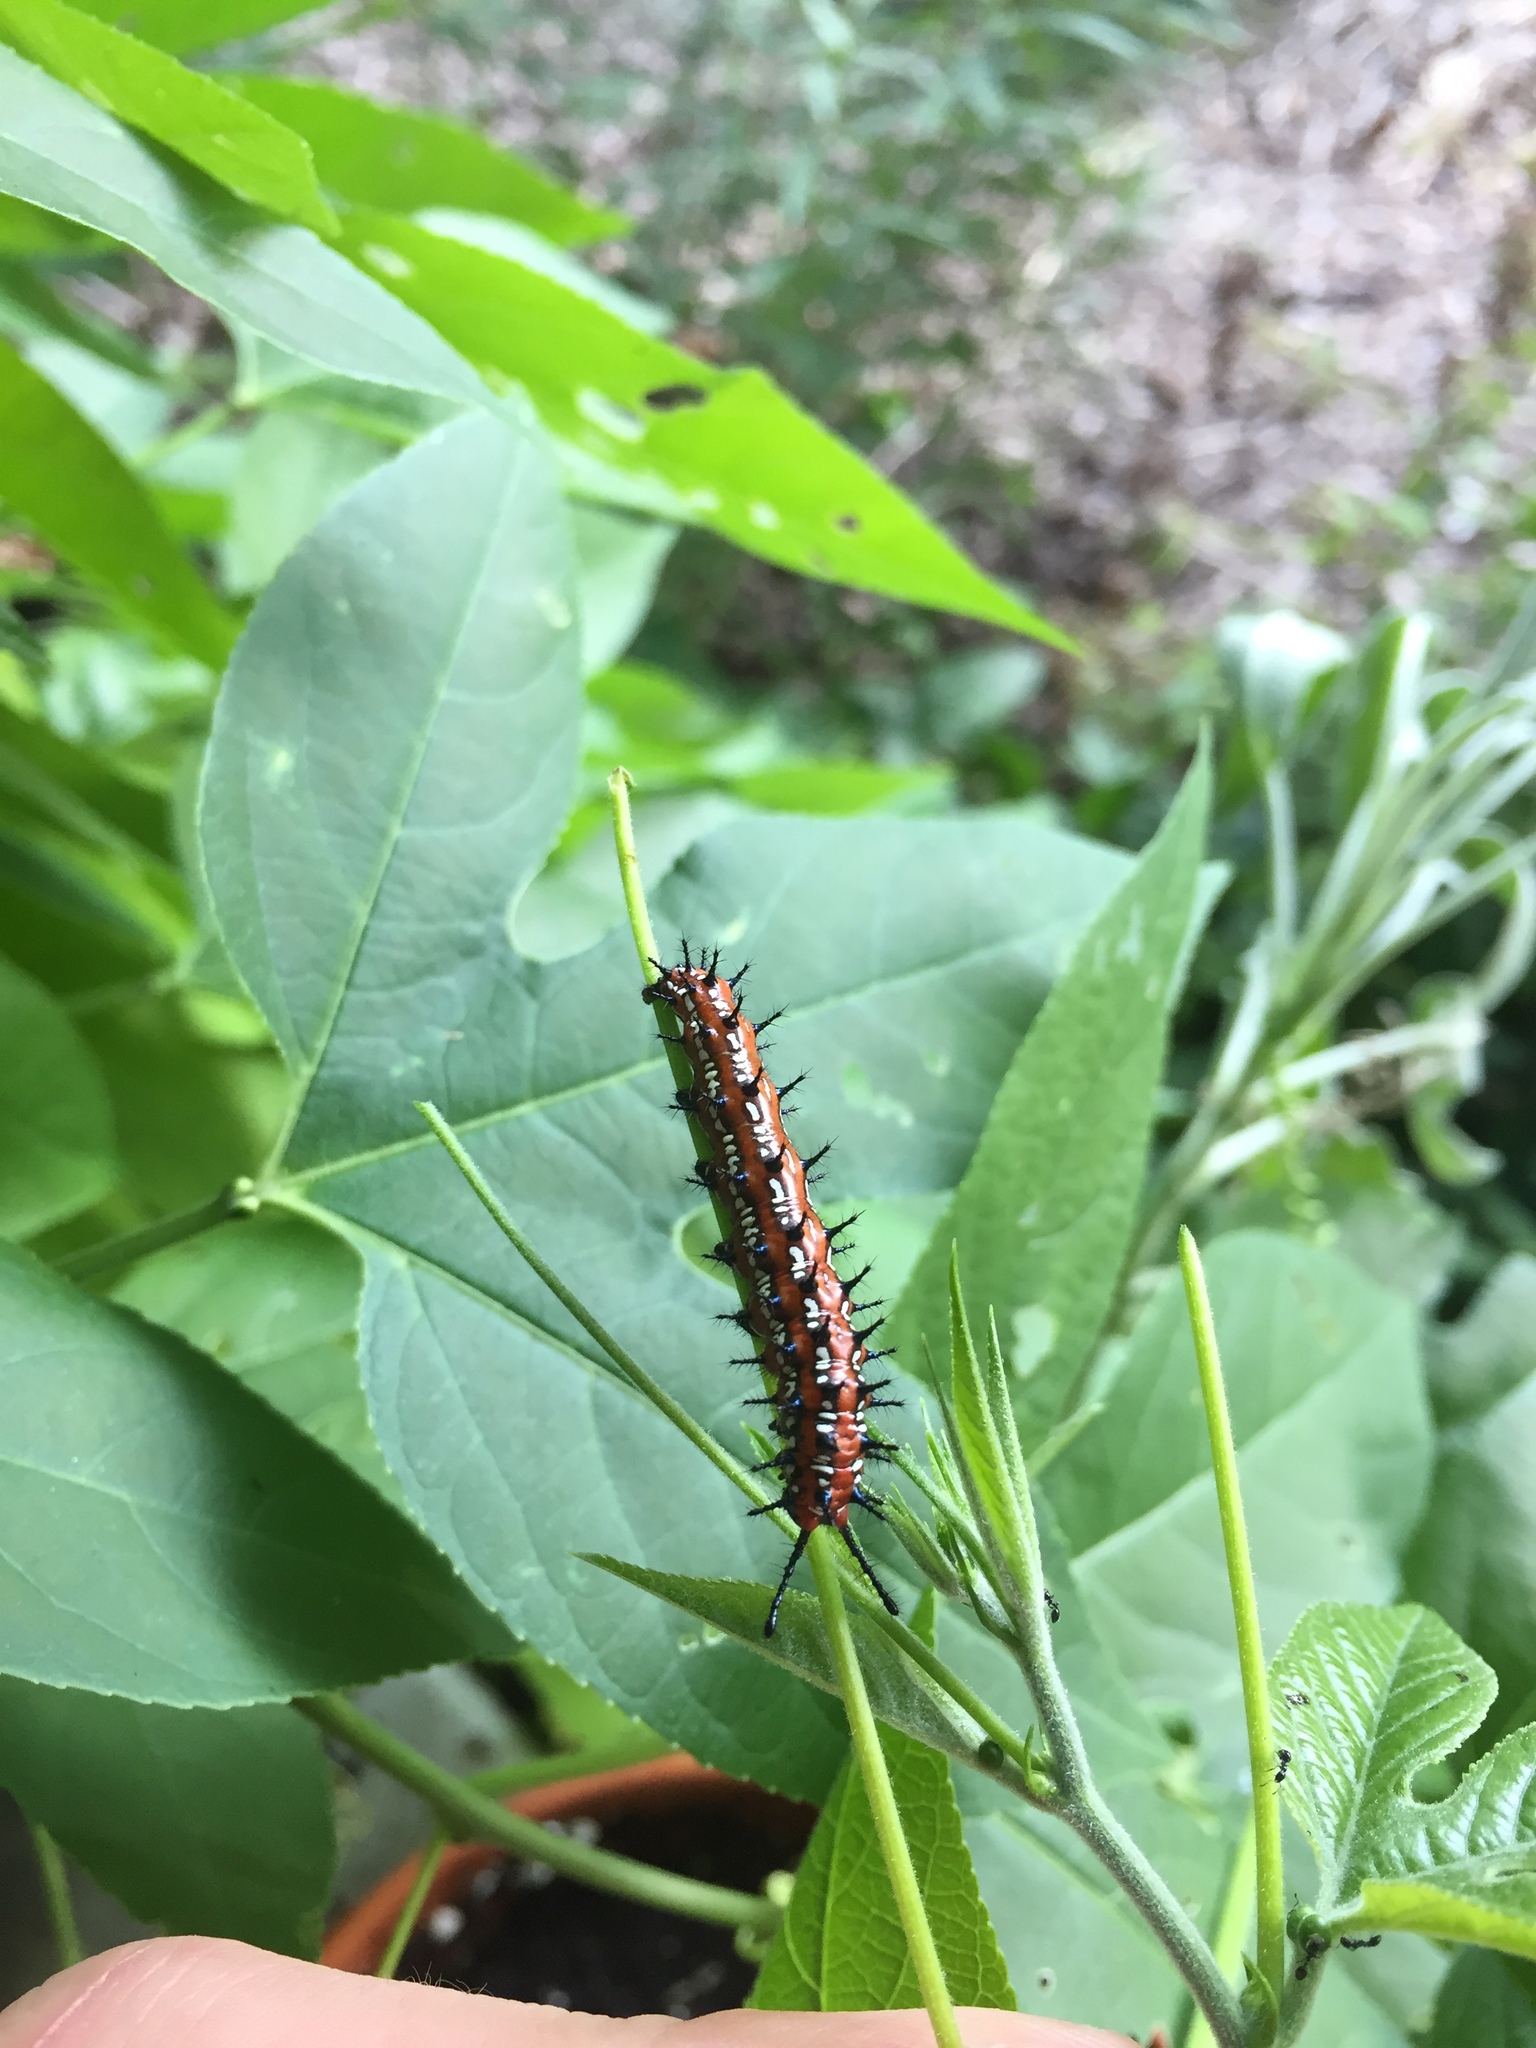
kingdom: Animalia
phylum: Arthropoda
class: Insecta
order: Lepidoptera
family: Nymphalidae
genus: Euptoieta
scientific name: Euptoieta claudia
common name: Variegated fritillary
